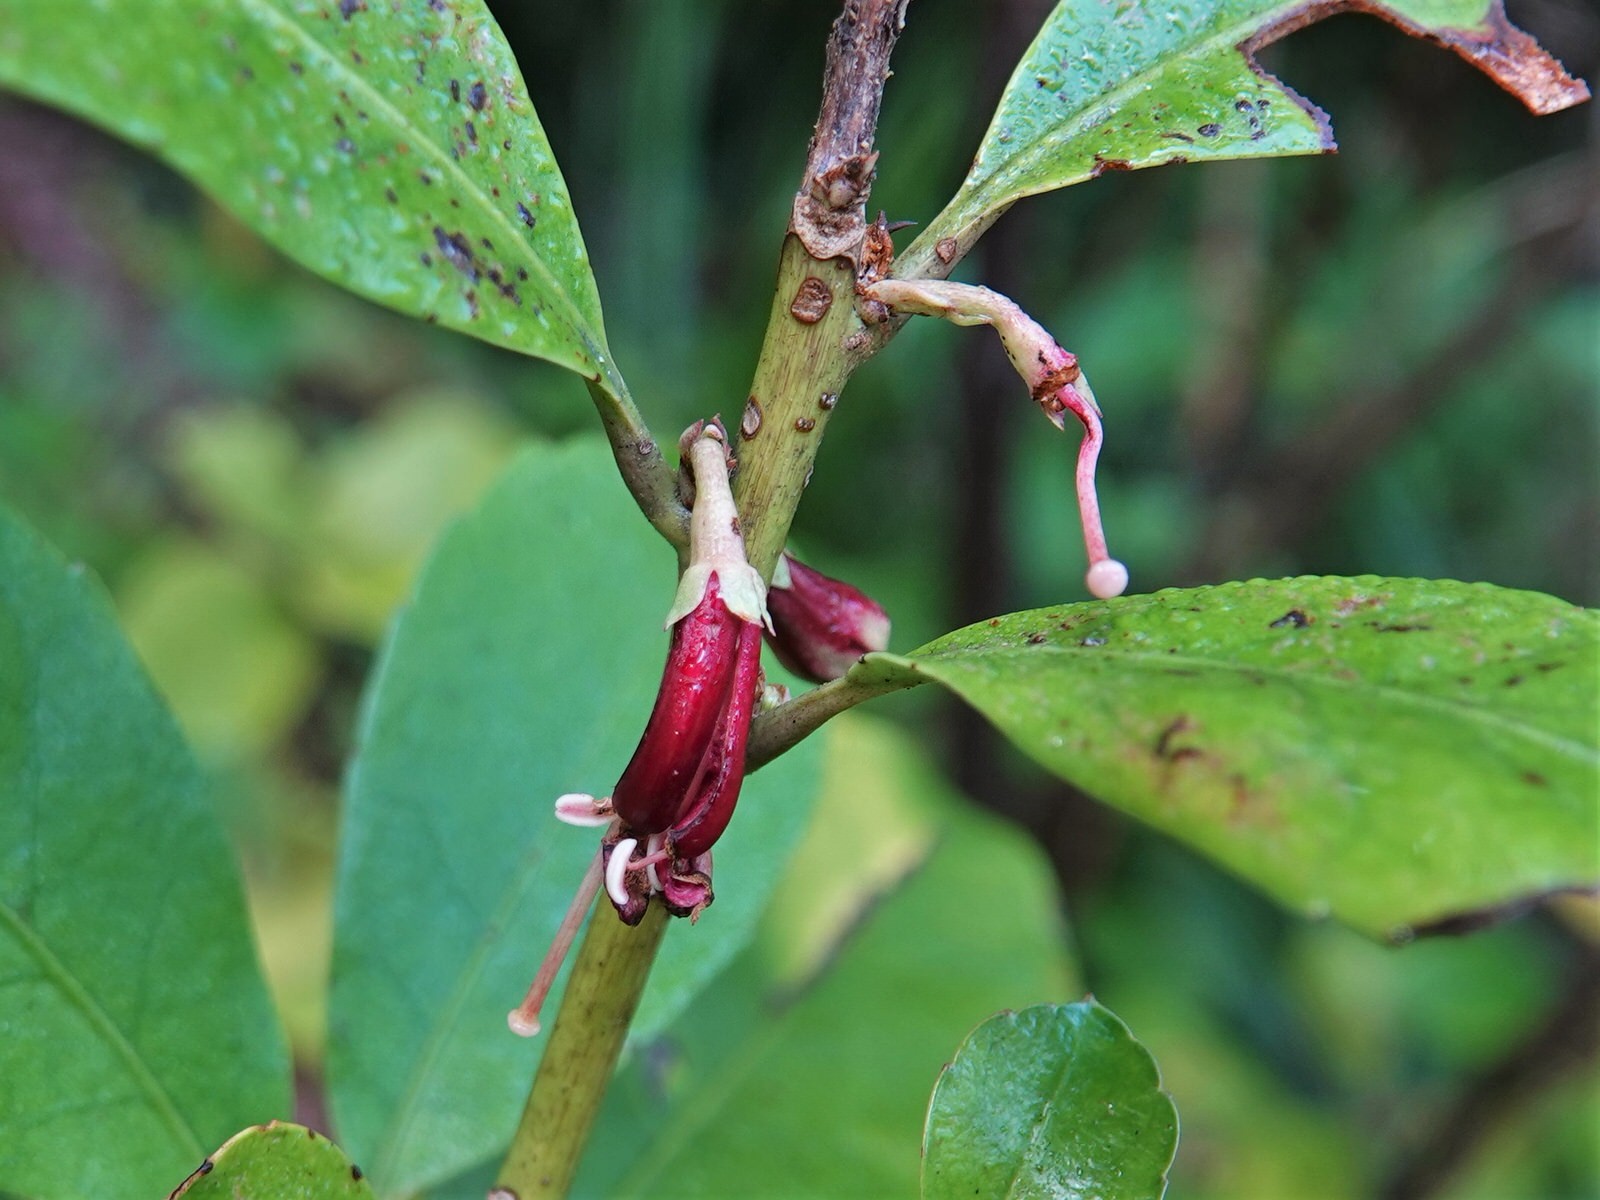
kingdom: Plantae
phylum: Tracheophyta
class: Magnoliopsida
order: Asterales
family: Alseuosmiaceae
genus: Alseuosmia
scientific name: Alseuosmia macrophylla
